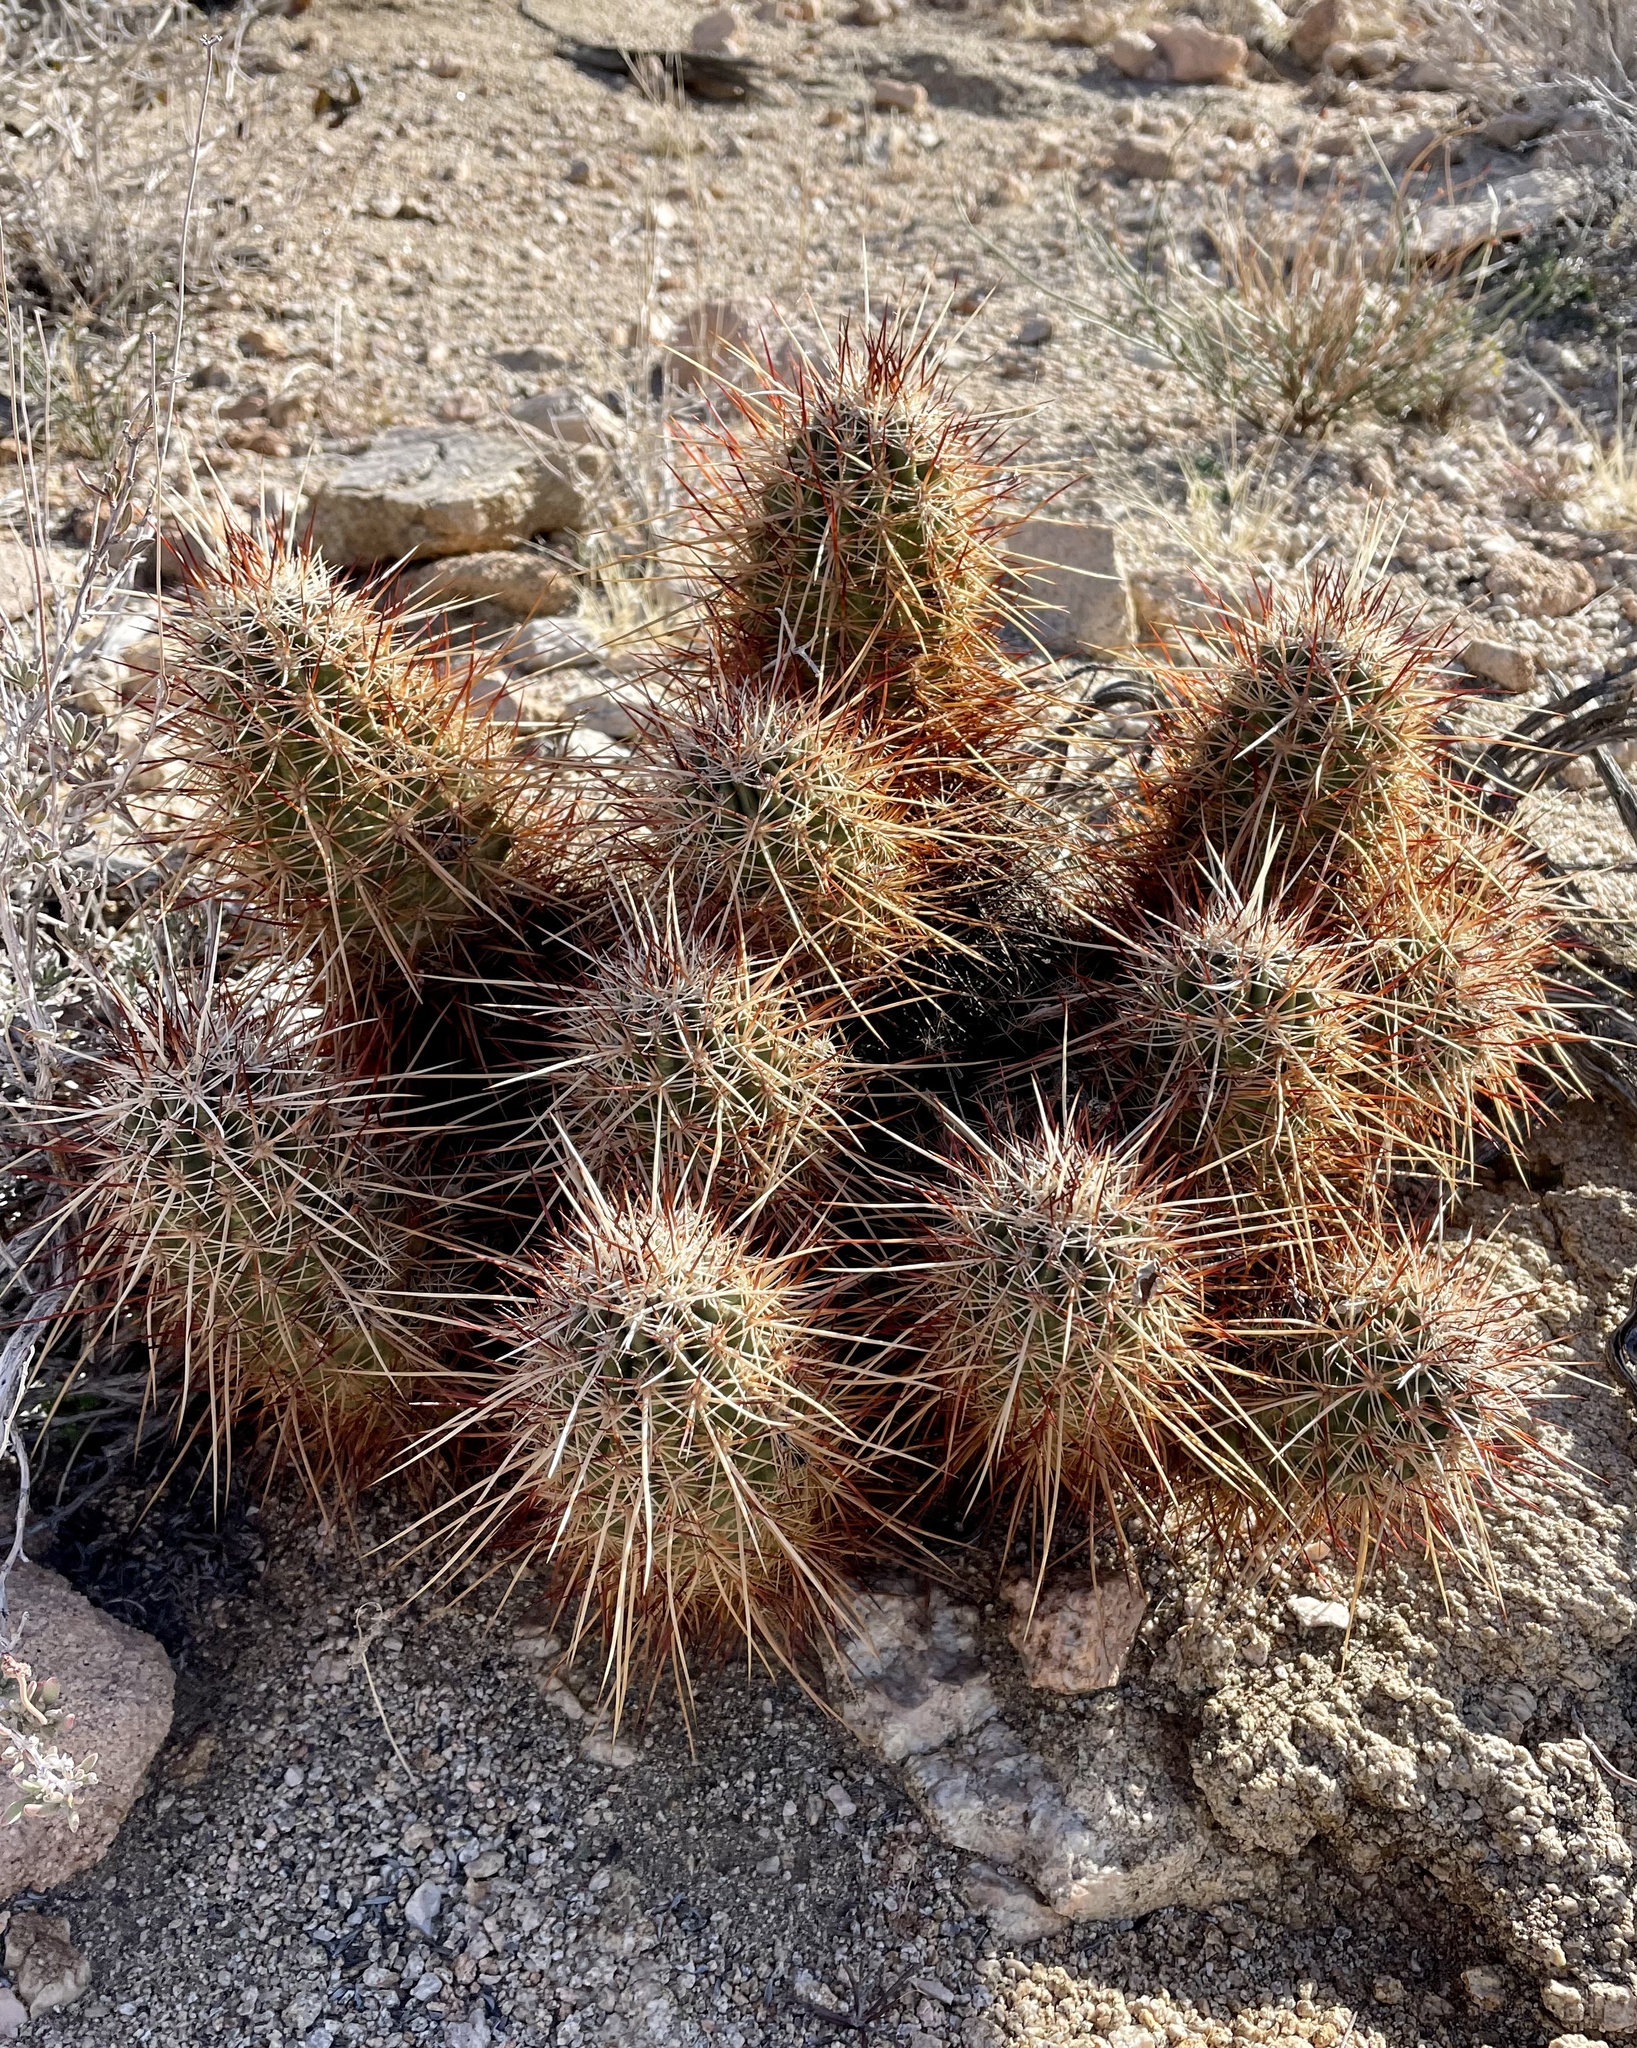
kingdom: Plantae
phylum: Tracheophyta
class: Magnoliopsida
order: Caryophyllales
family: Cactaceae
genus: Echinocereus
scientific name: Echinocereus engelmannii
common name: Engelmann's hedgehog cactus
